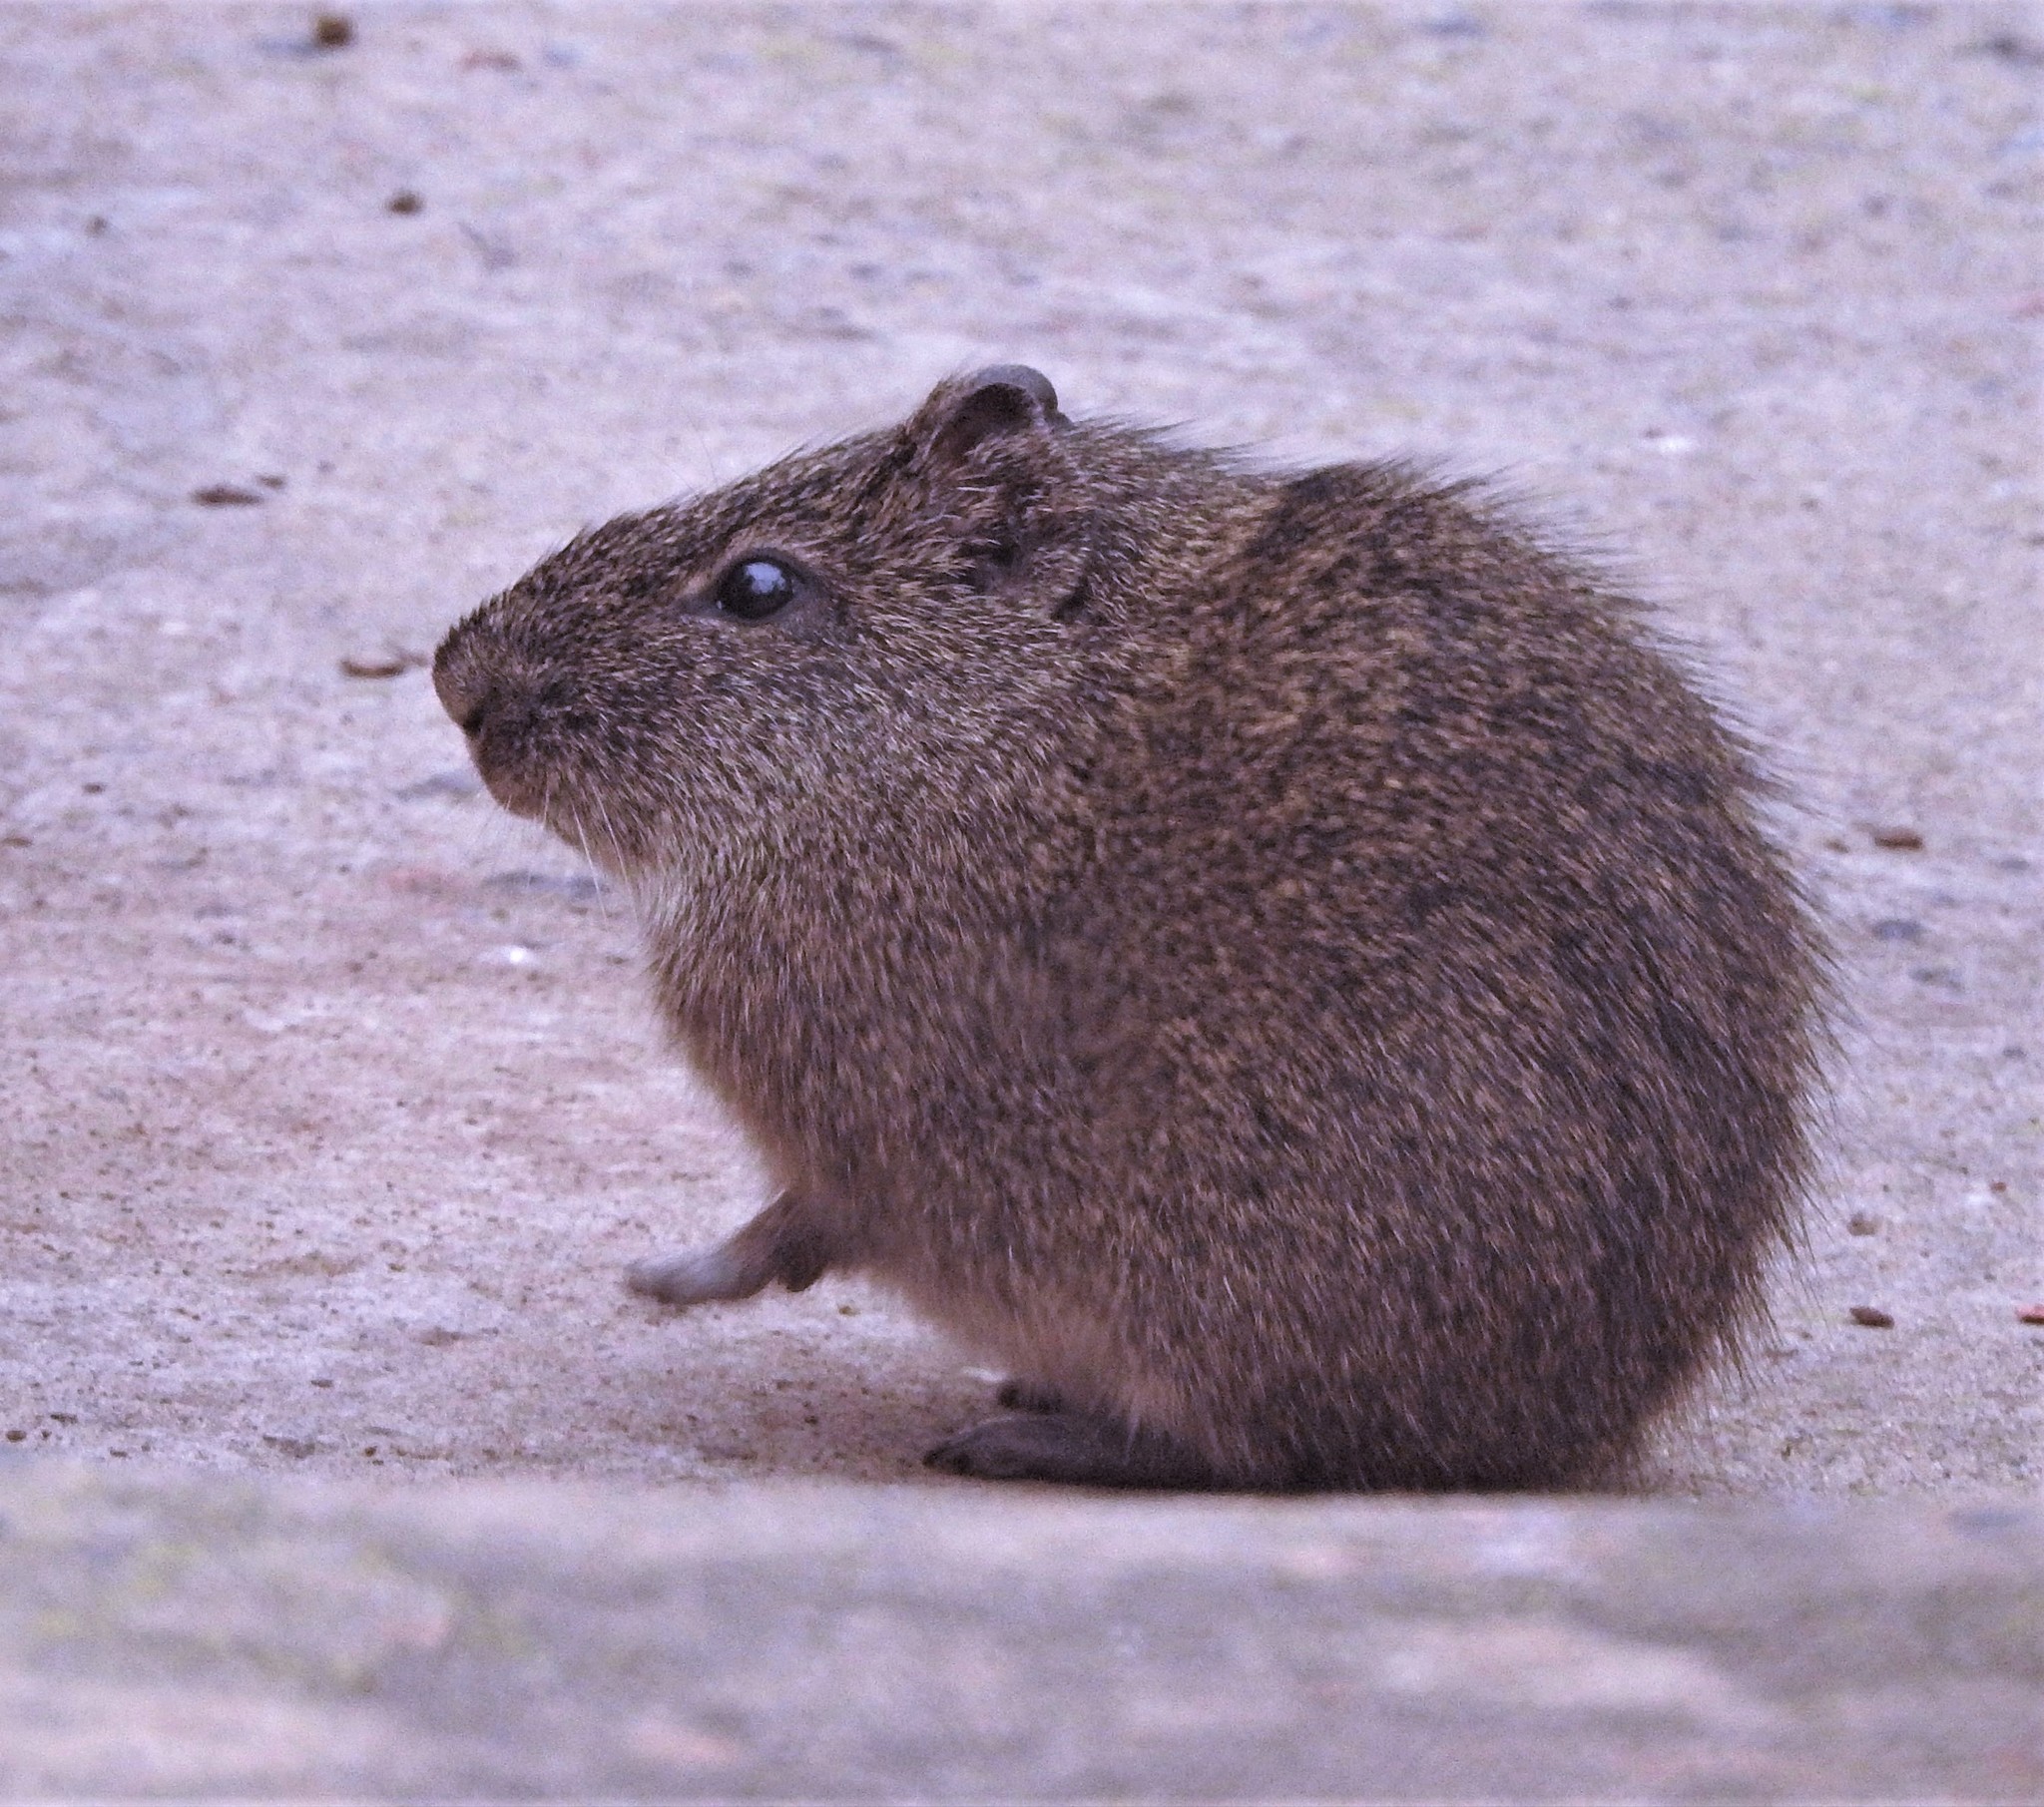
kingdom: Animalia
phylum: Chordata
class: Mammalia
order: Rodentia
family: Caviidae
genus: Cavia
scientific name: Cavia aperea
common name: Brazilian guinea pig
